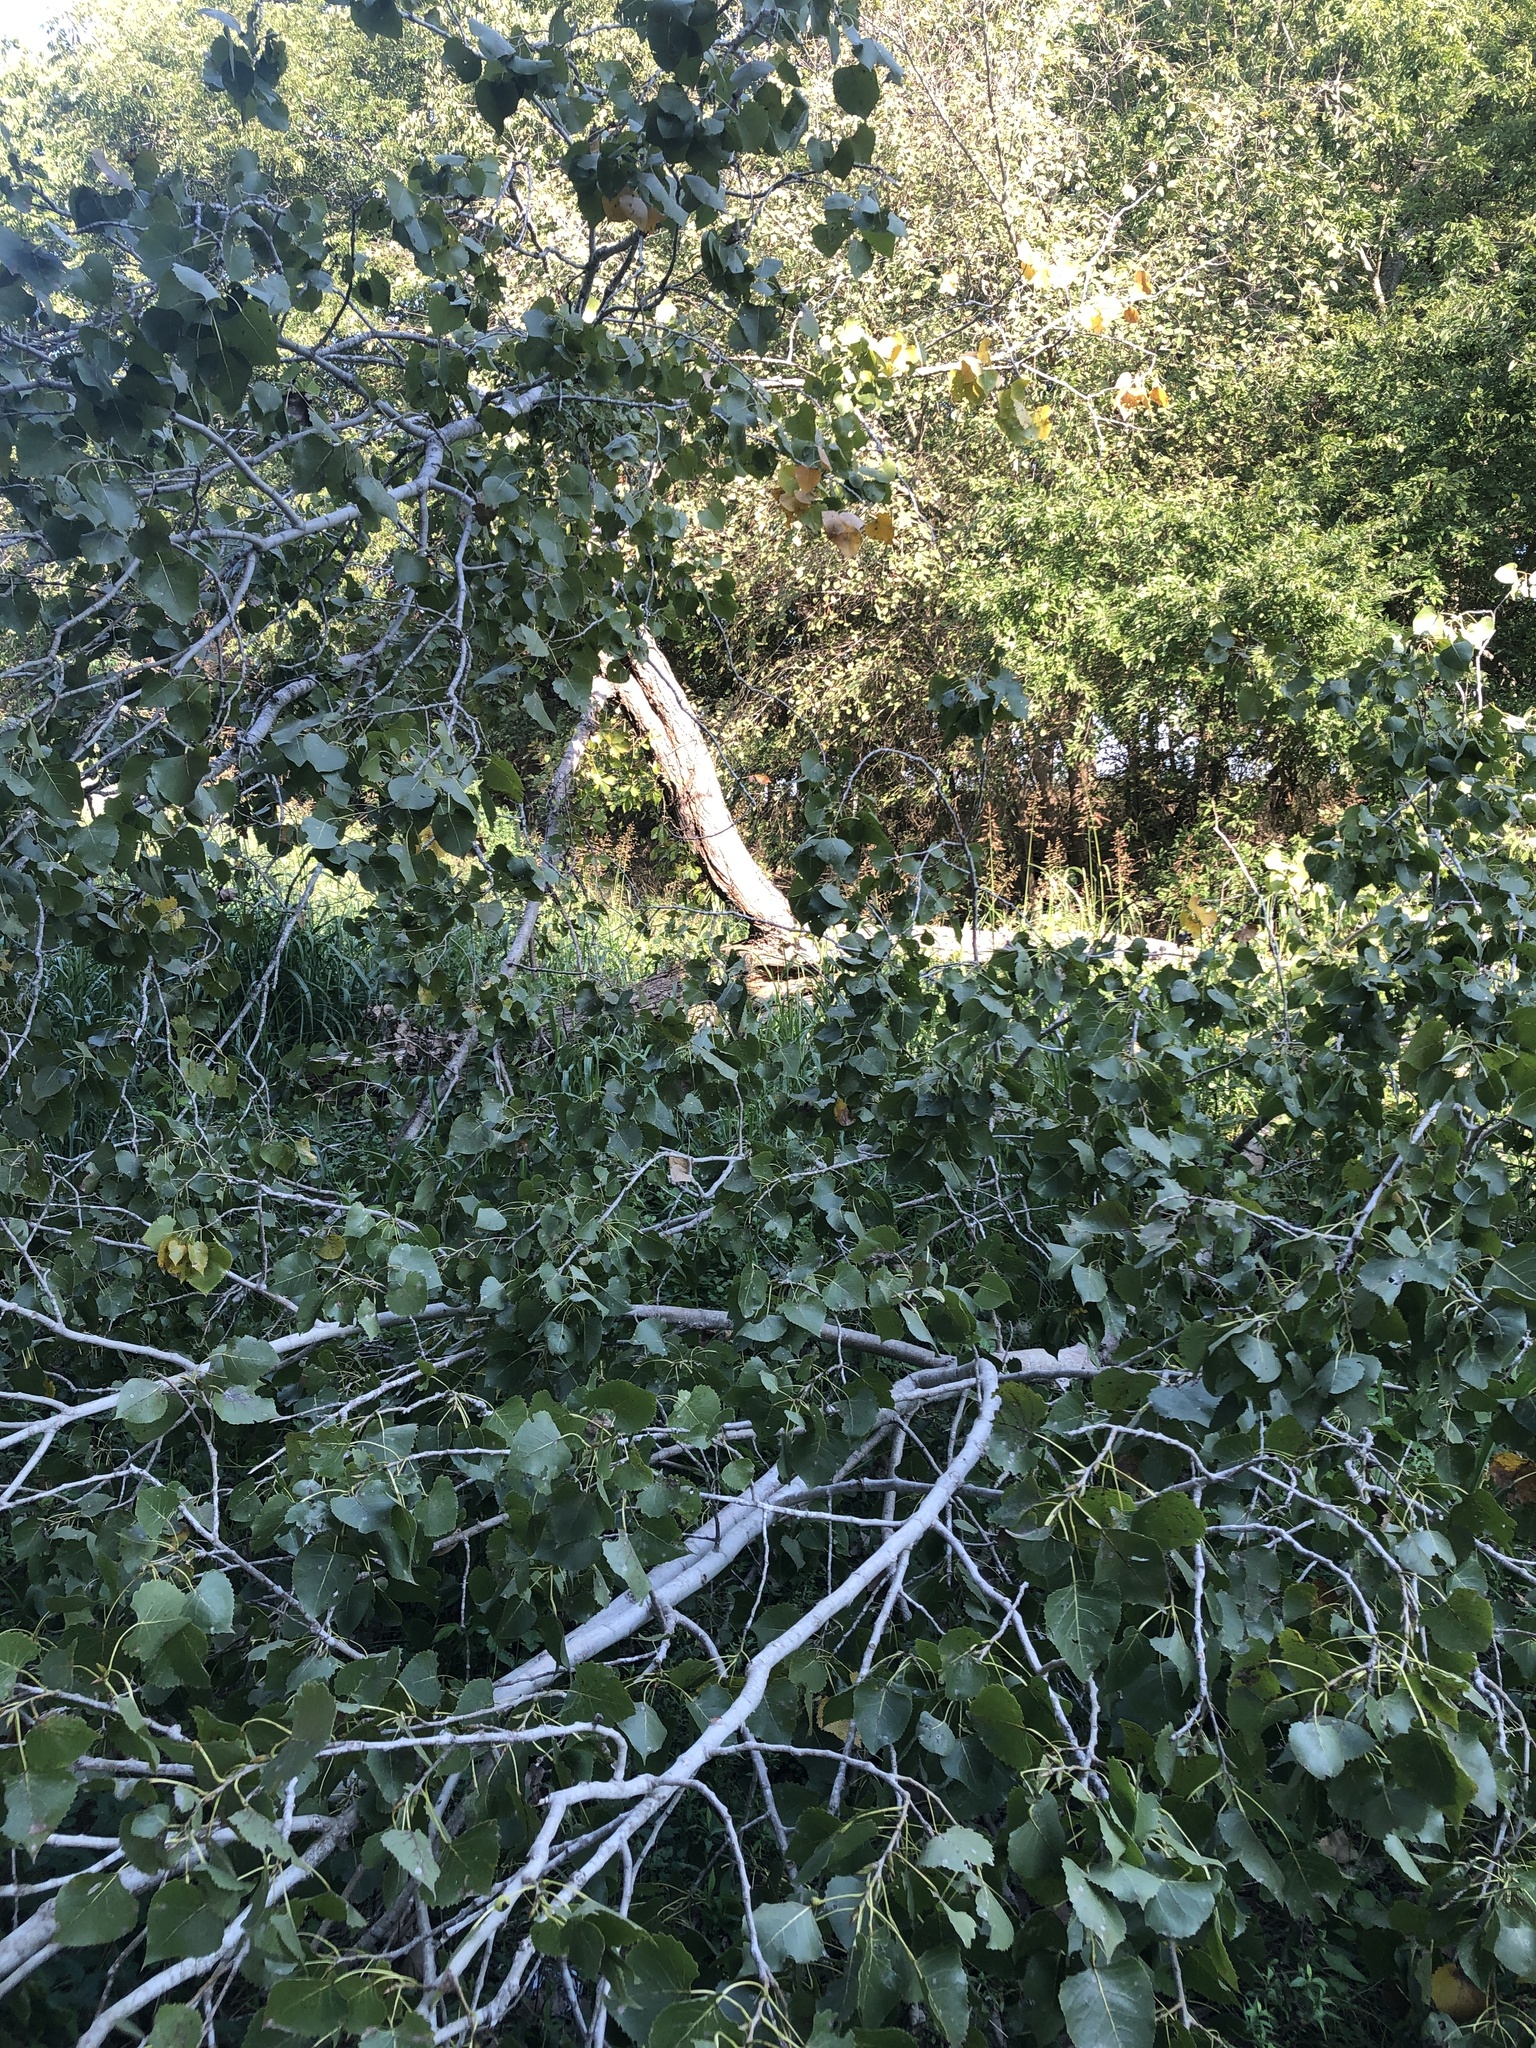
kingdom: Plantae
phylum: Tracheophyta
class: Magnoliopsida
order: Malpighiales
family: Salicaceae
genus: Populus
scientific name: Populus deltoides
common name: Eastern cottonwood
